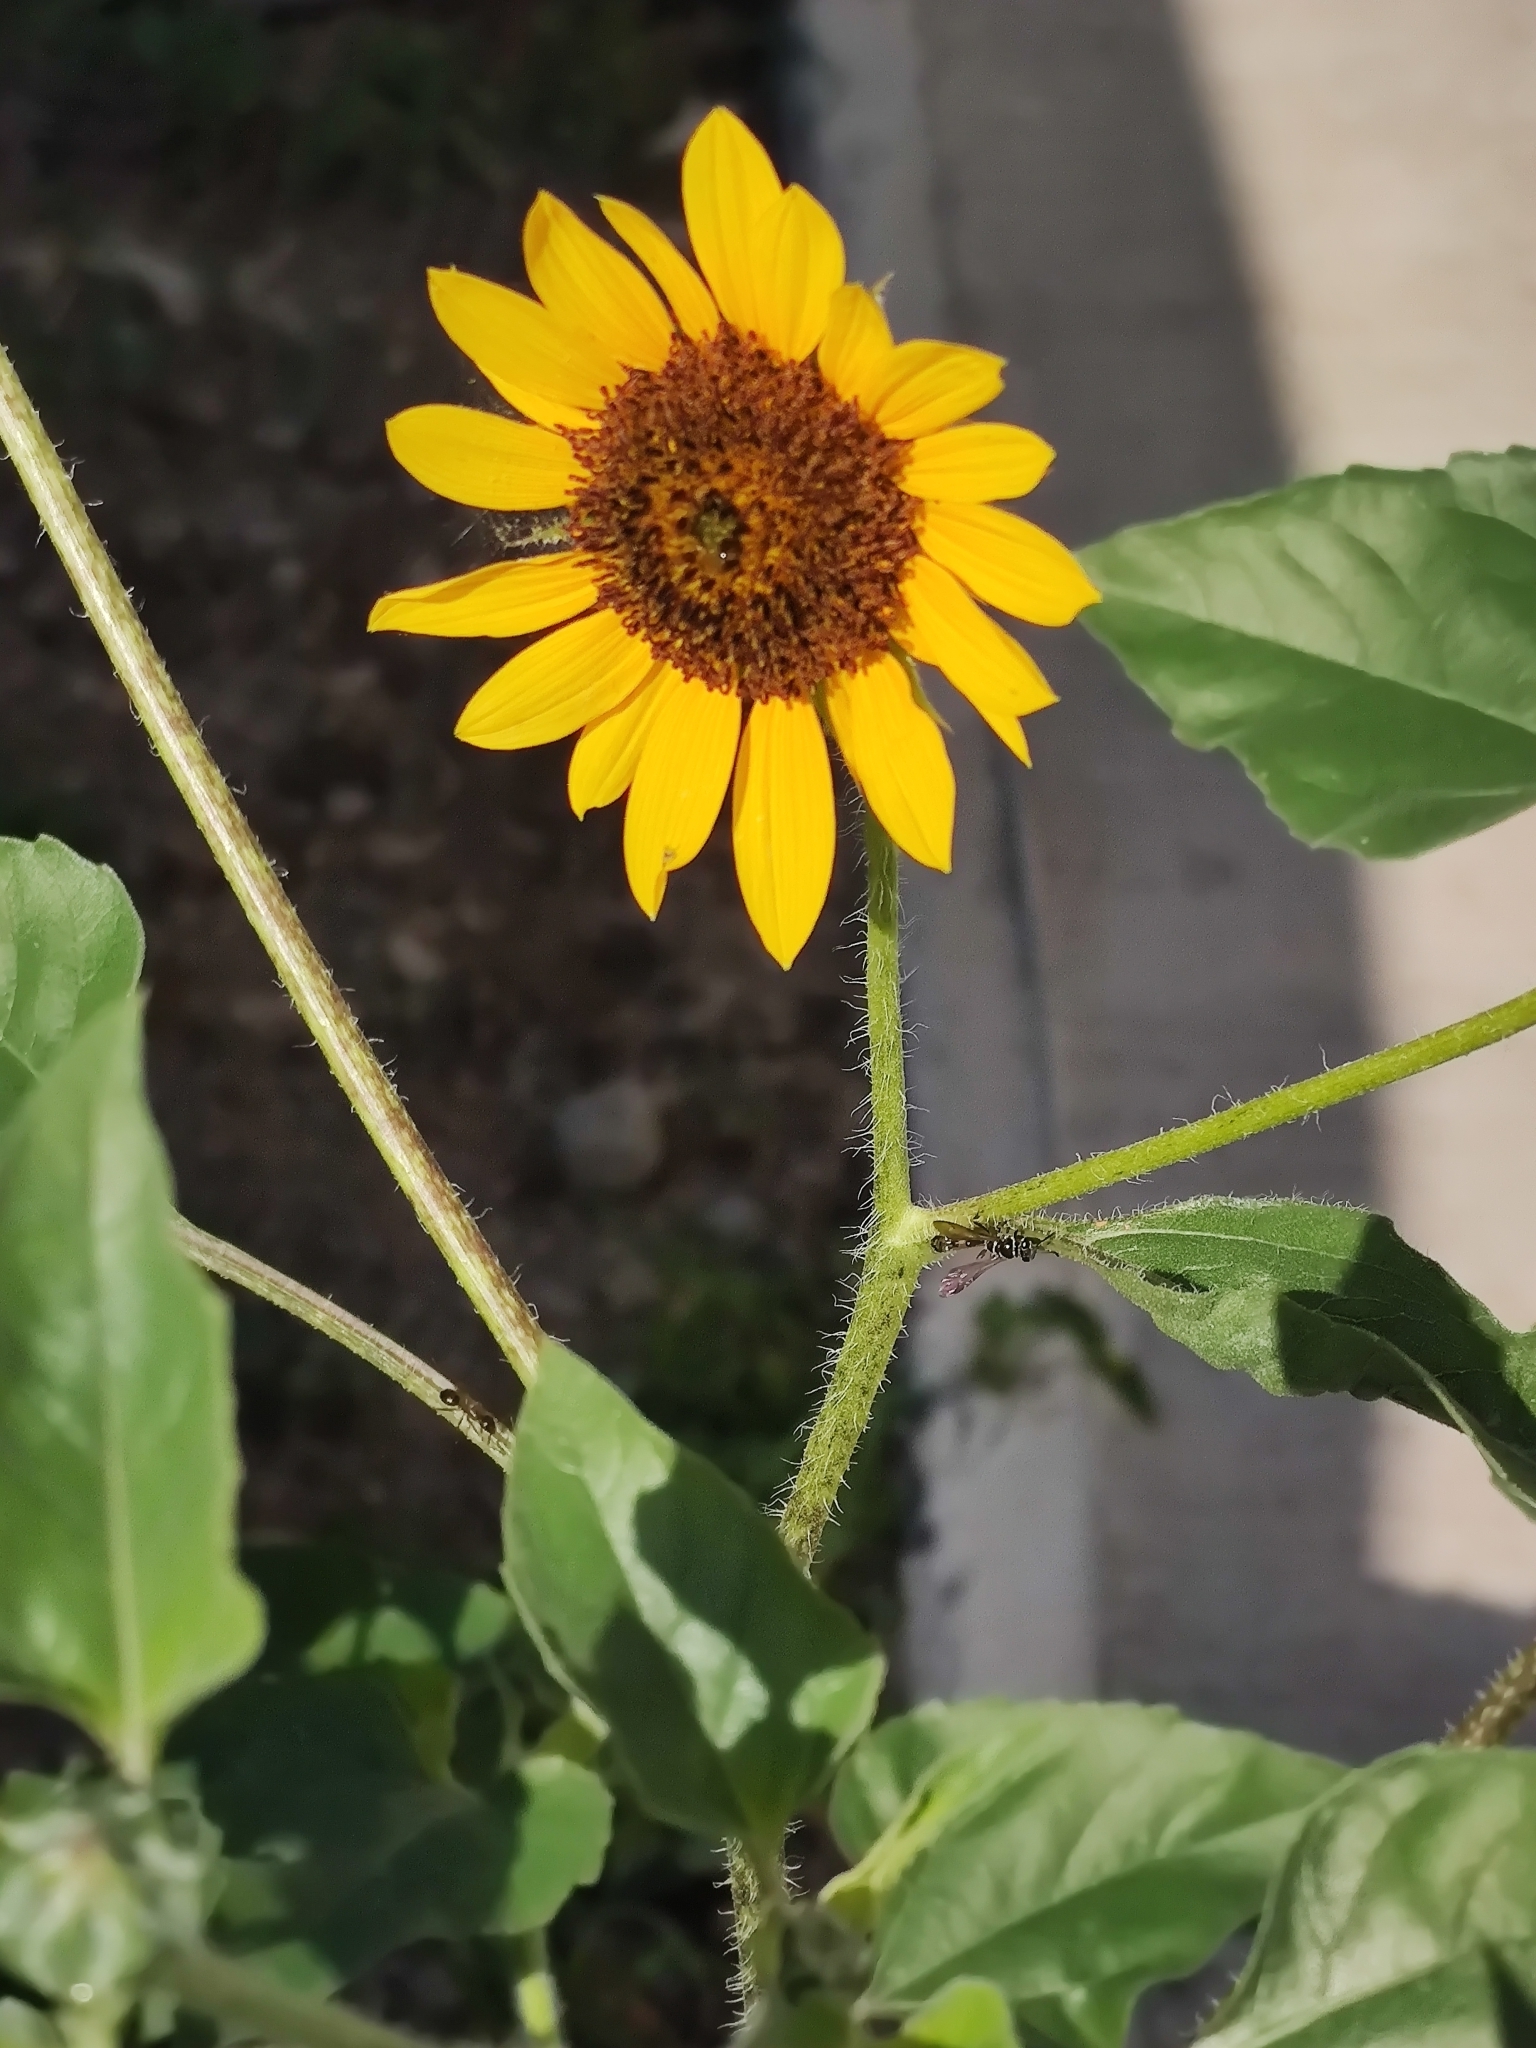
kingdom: Plantae
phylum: Tracheophyta
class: Magnoliopsida
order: Asterales
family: Asteraceae
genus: Helianthus
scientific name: Helianthus annuus
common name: Sunflower
